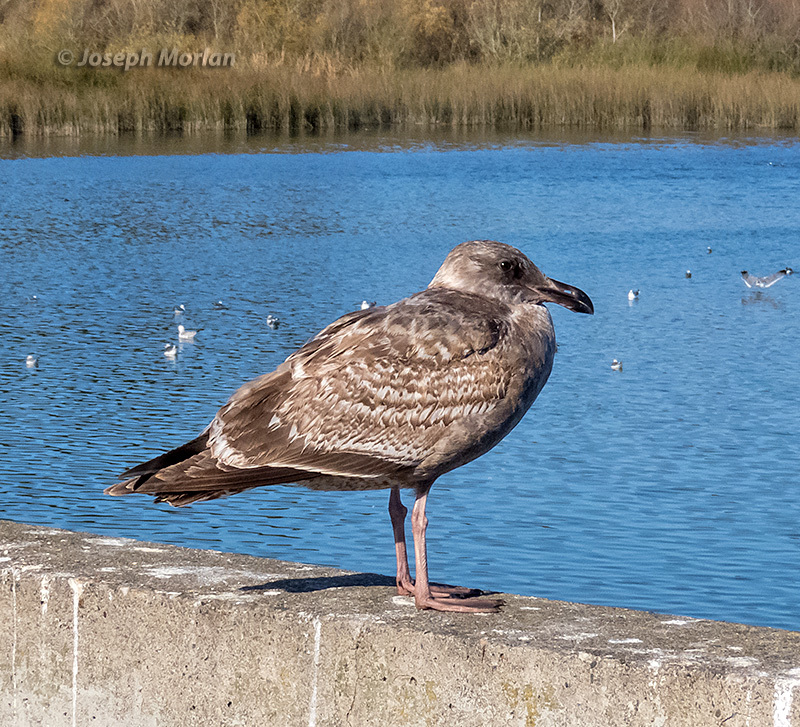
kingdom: Animalia
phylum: Chordata
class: Aves
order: Charadriiformes
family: Laridae
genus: Larus
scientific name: Larus occidentalis
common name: Western gull
